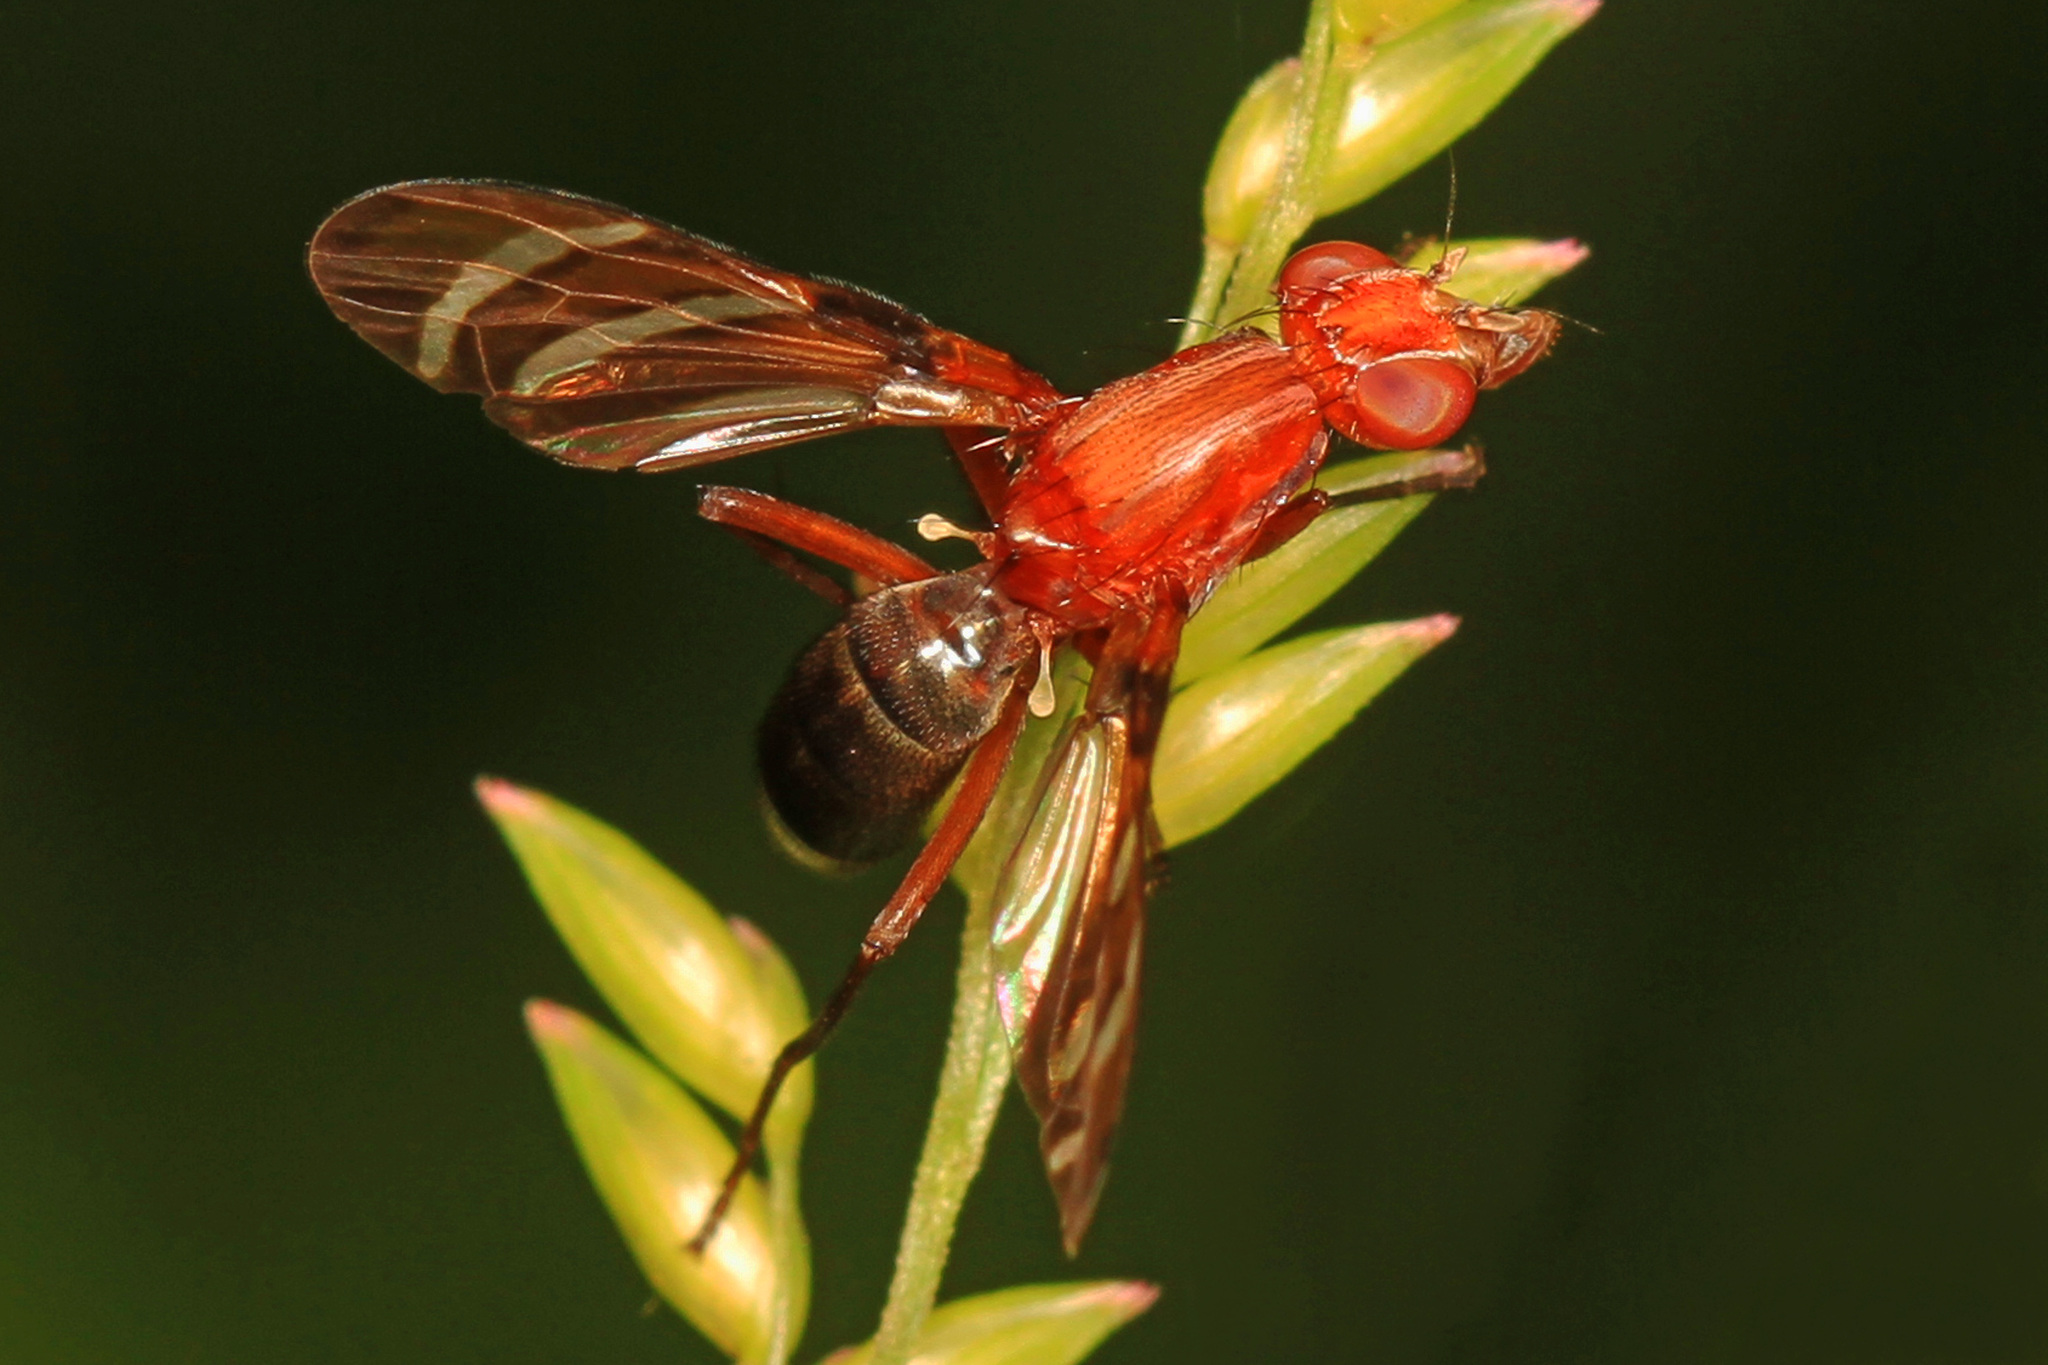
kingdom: Animalia
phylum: Arthropoda
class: Insecta
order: Diptera
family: Ulidiidae
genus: Tritoxa
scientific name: Tritoxa incurva
